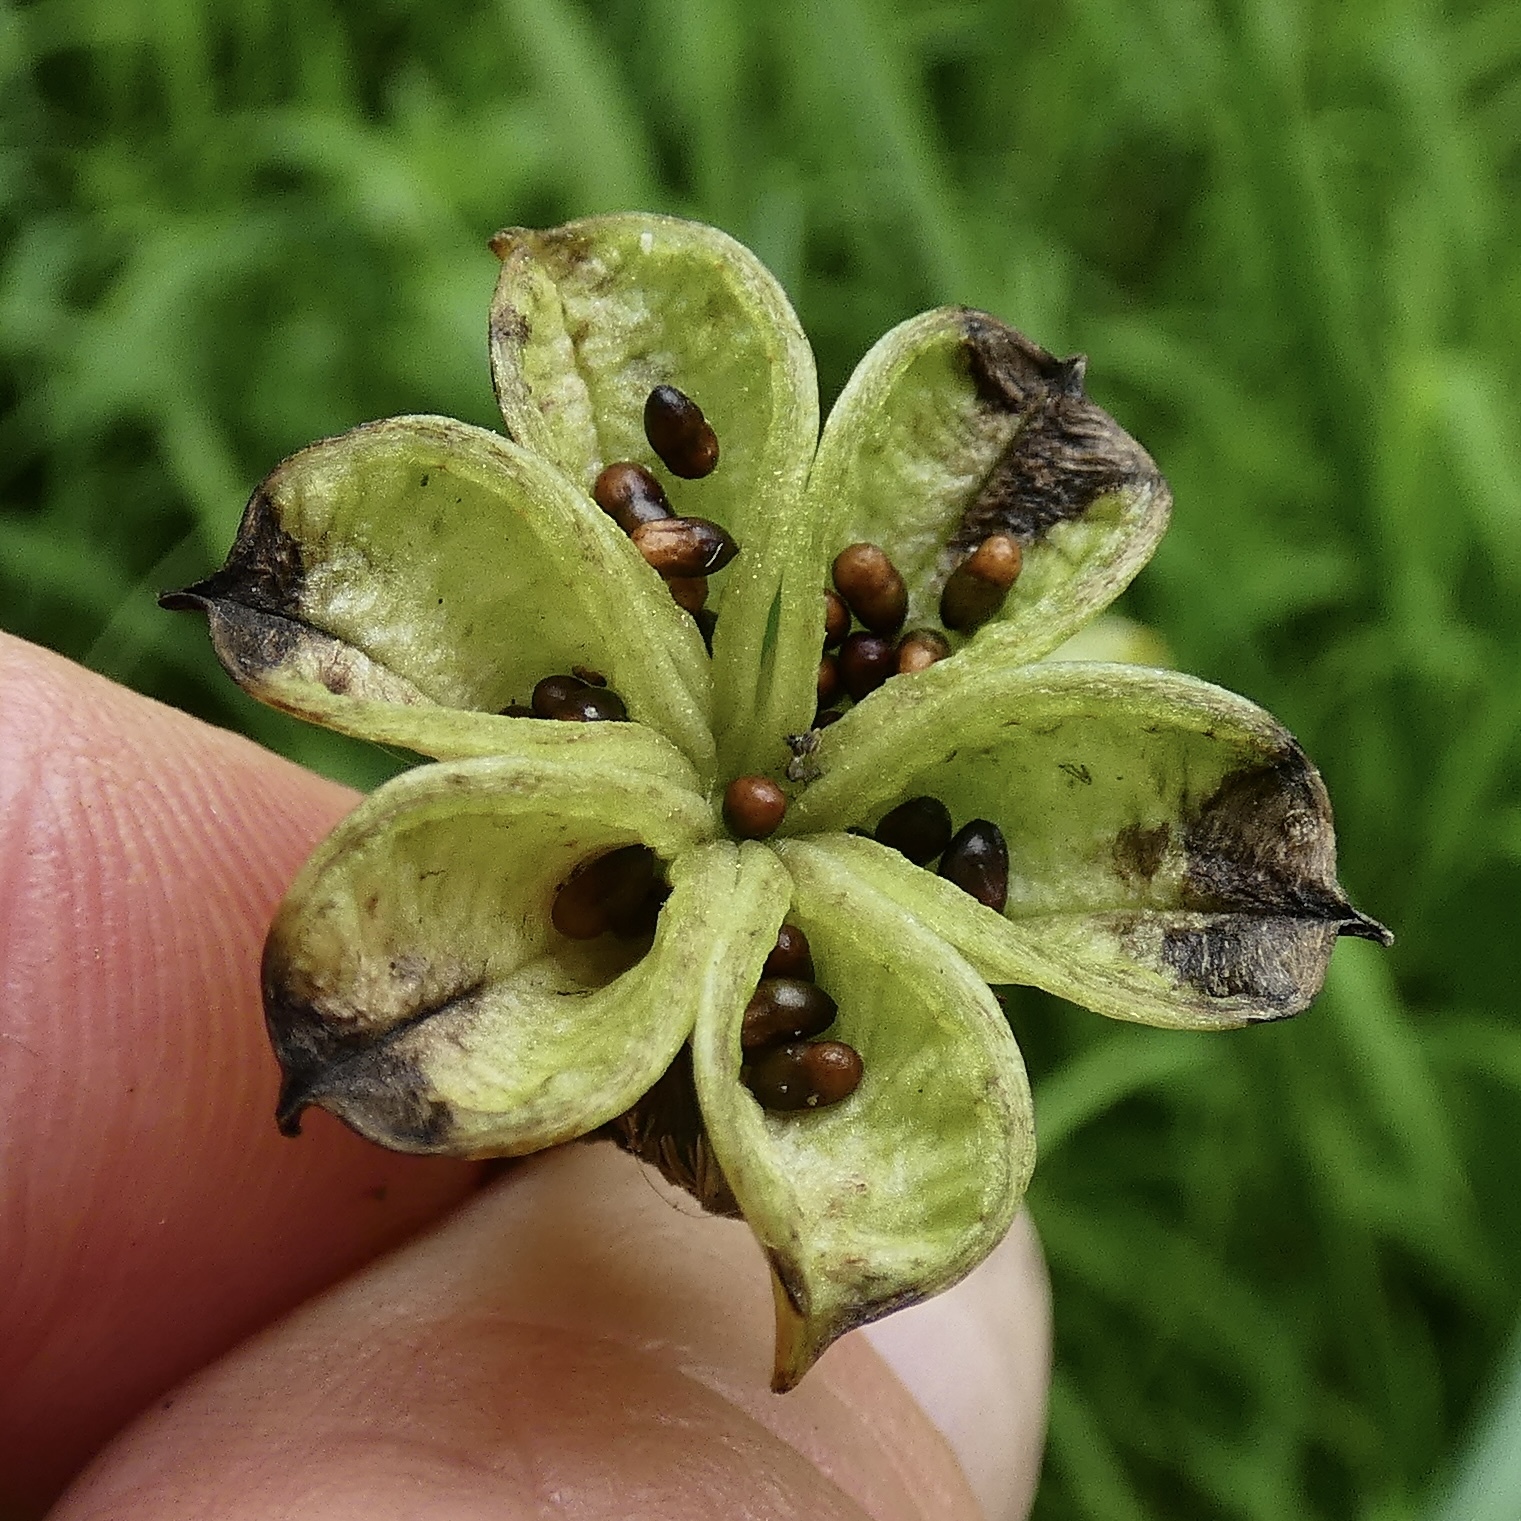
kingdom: Plantae
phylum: Tracheophyta
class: Magnoliopsida
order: Ranunculales
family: Ranunculaceae
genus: Caltha
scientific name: Caltha palustris
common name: Marsh marigold
